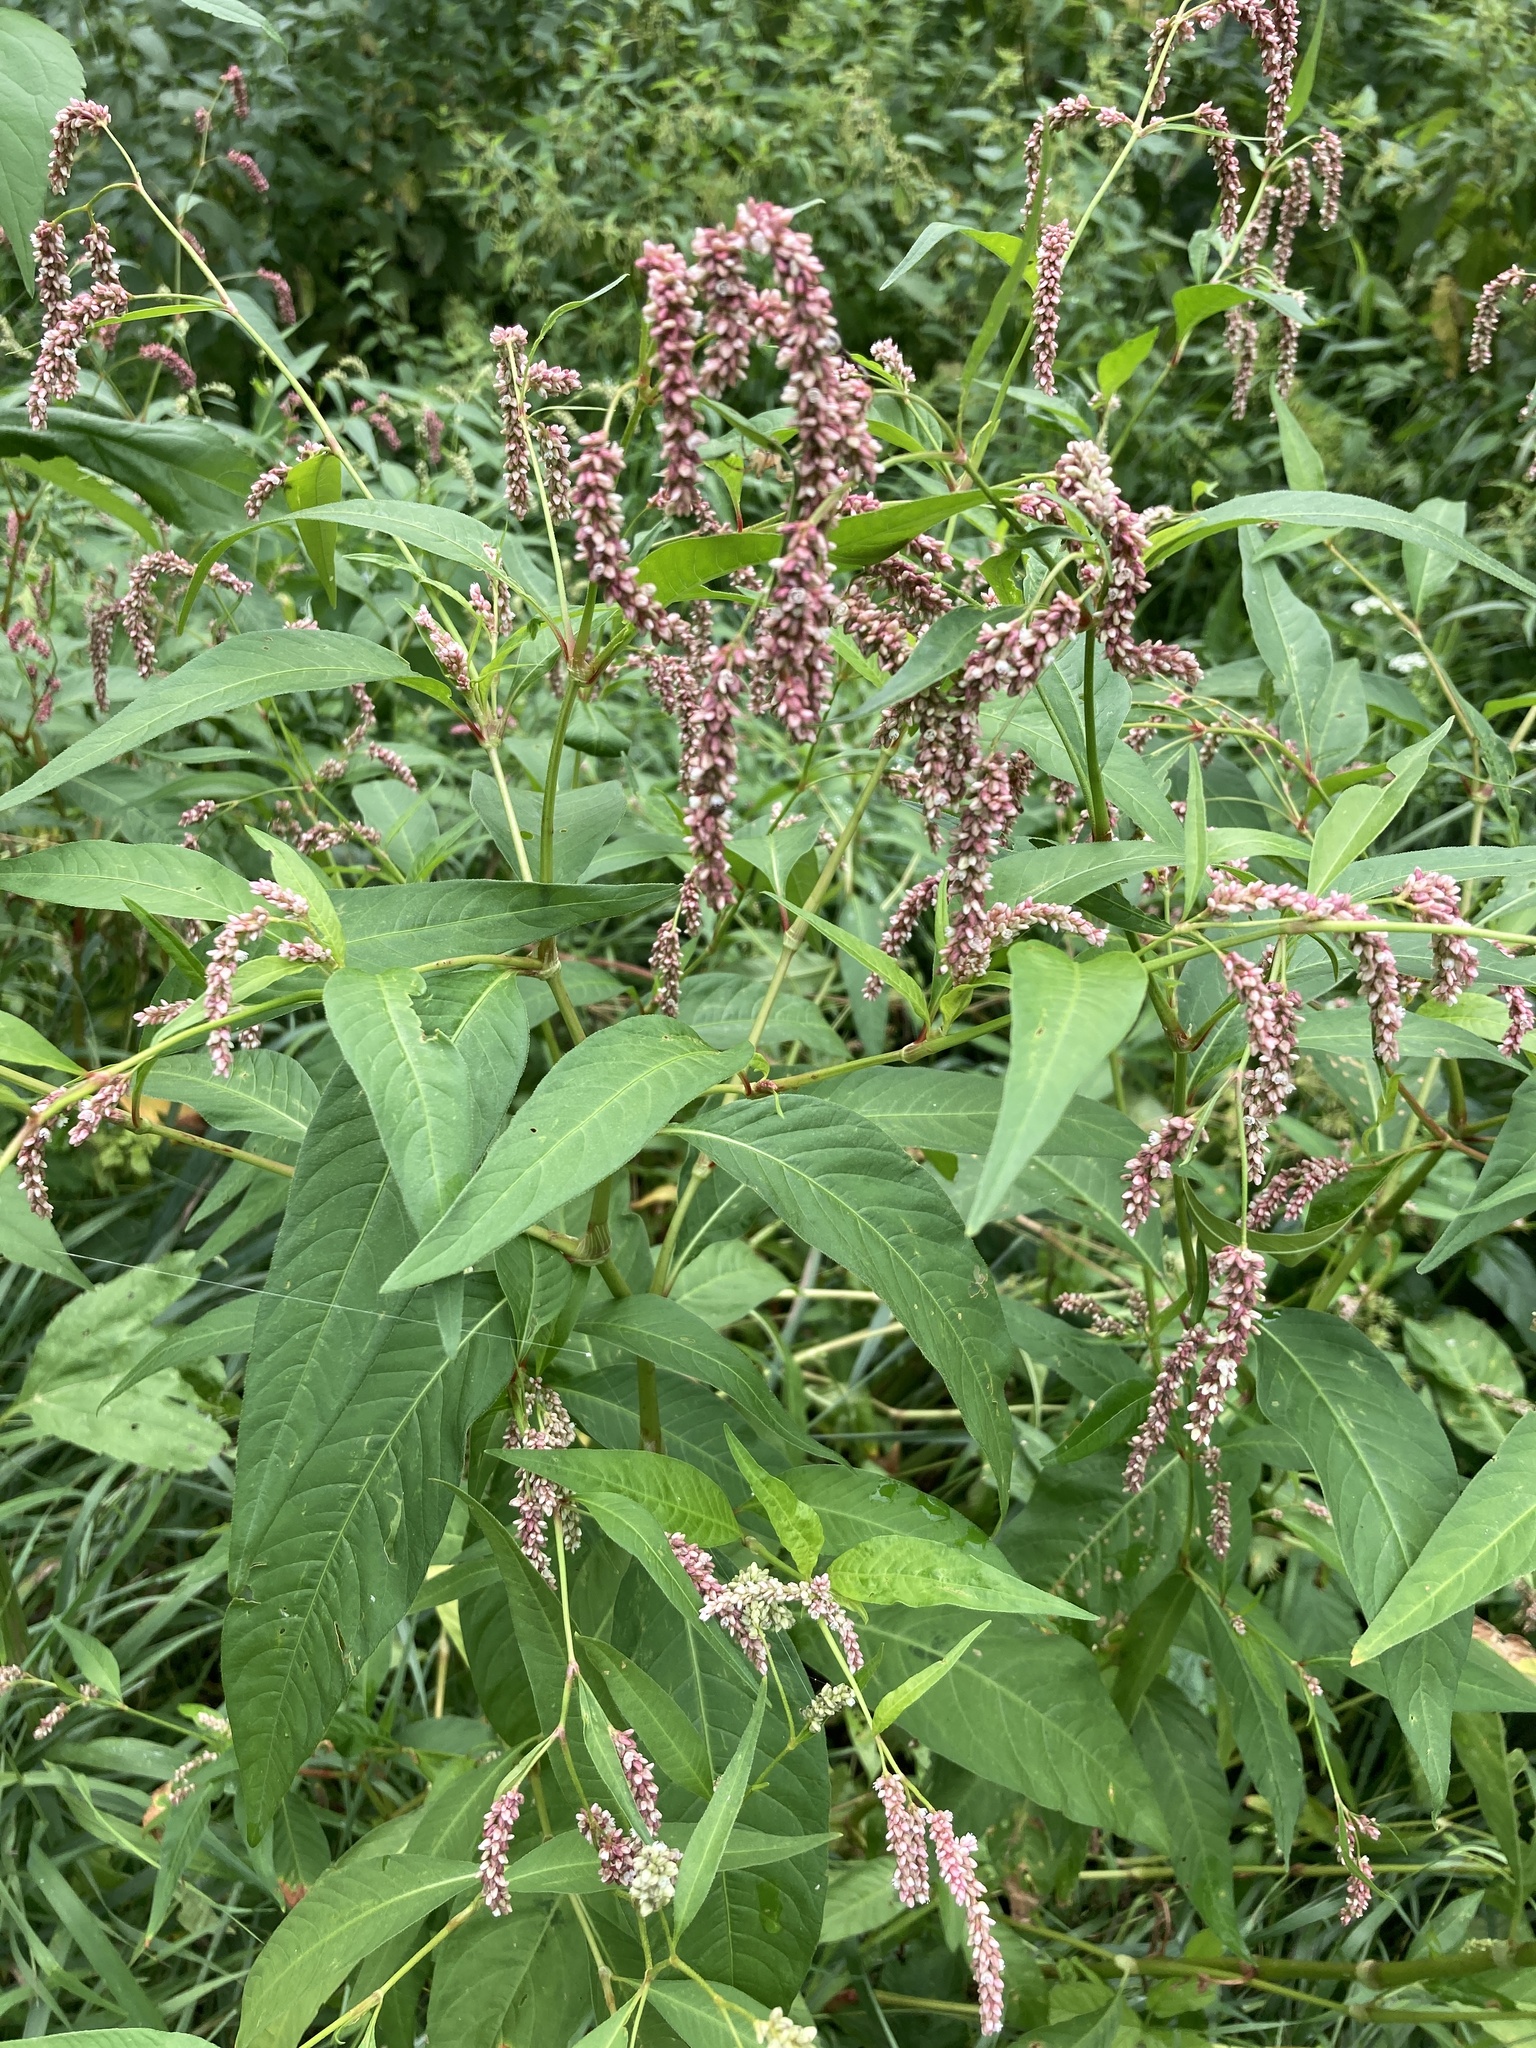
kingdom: Plantae
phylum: Tracheophyta
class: Magnoliopsida
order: Caryophyllales
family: Polygonaceae
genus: Persicaria
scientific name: Persicaria lapathifolia
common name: Curlytop knotweed
